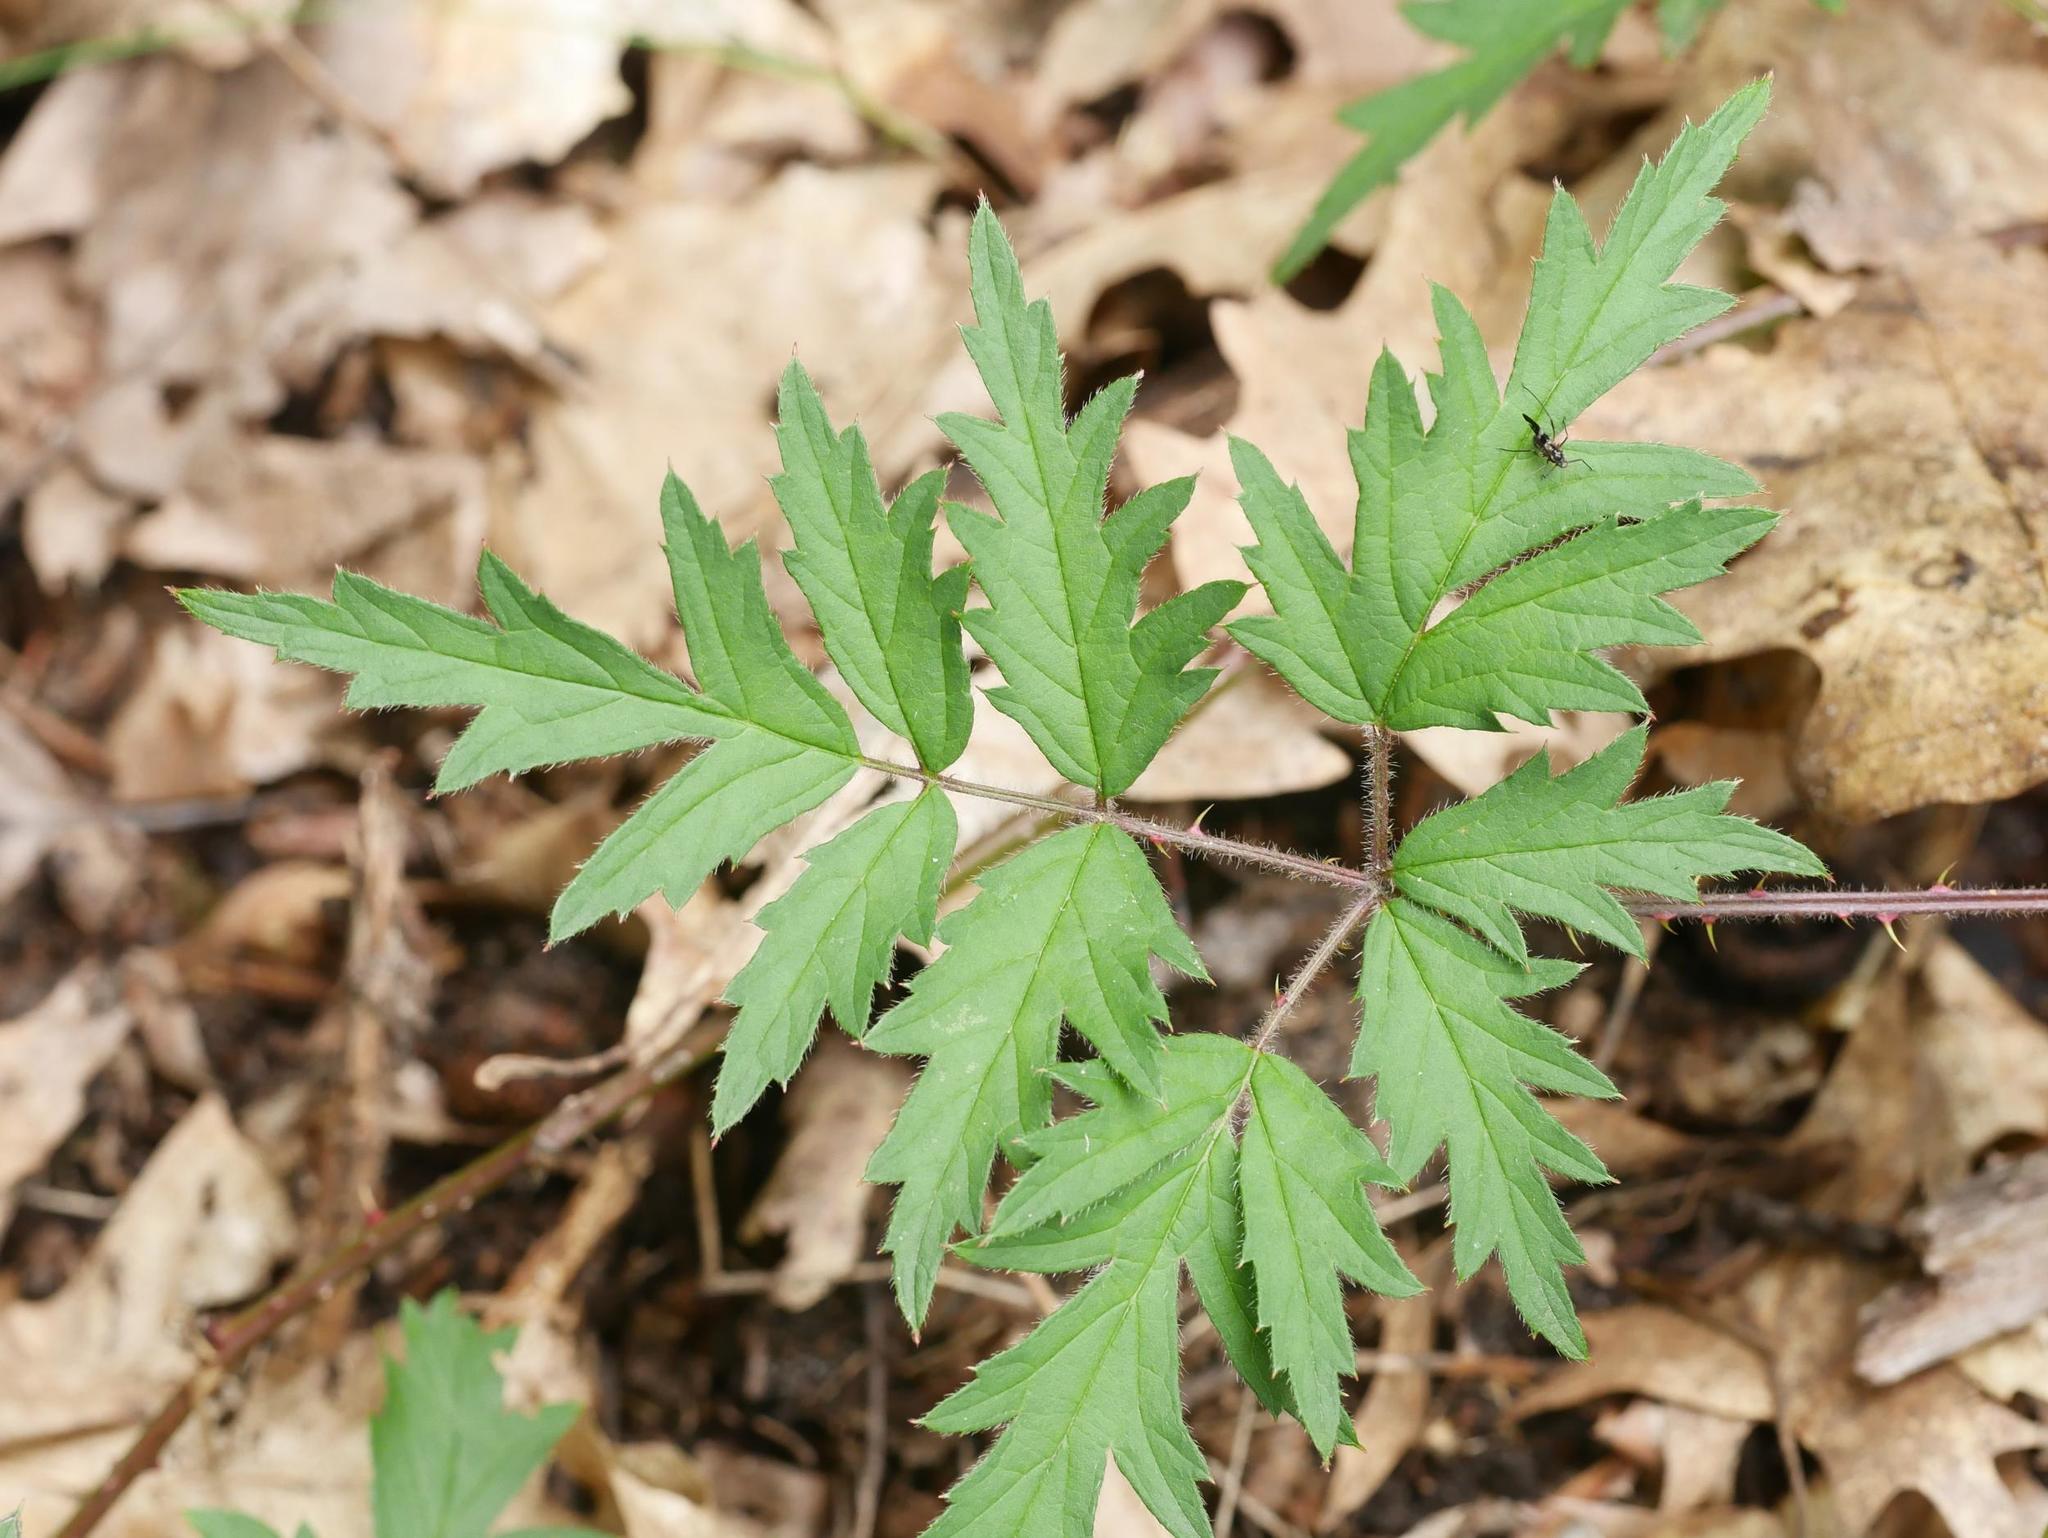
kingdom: Plantae
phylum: Tracheophyta
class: Magnoliopsida
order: Rosales
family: Rosaceae
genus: Rubus
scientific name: Rubus laciniatus
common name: Evergreen blackberry
